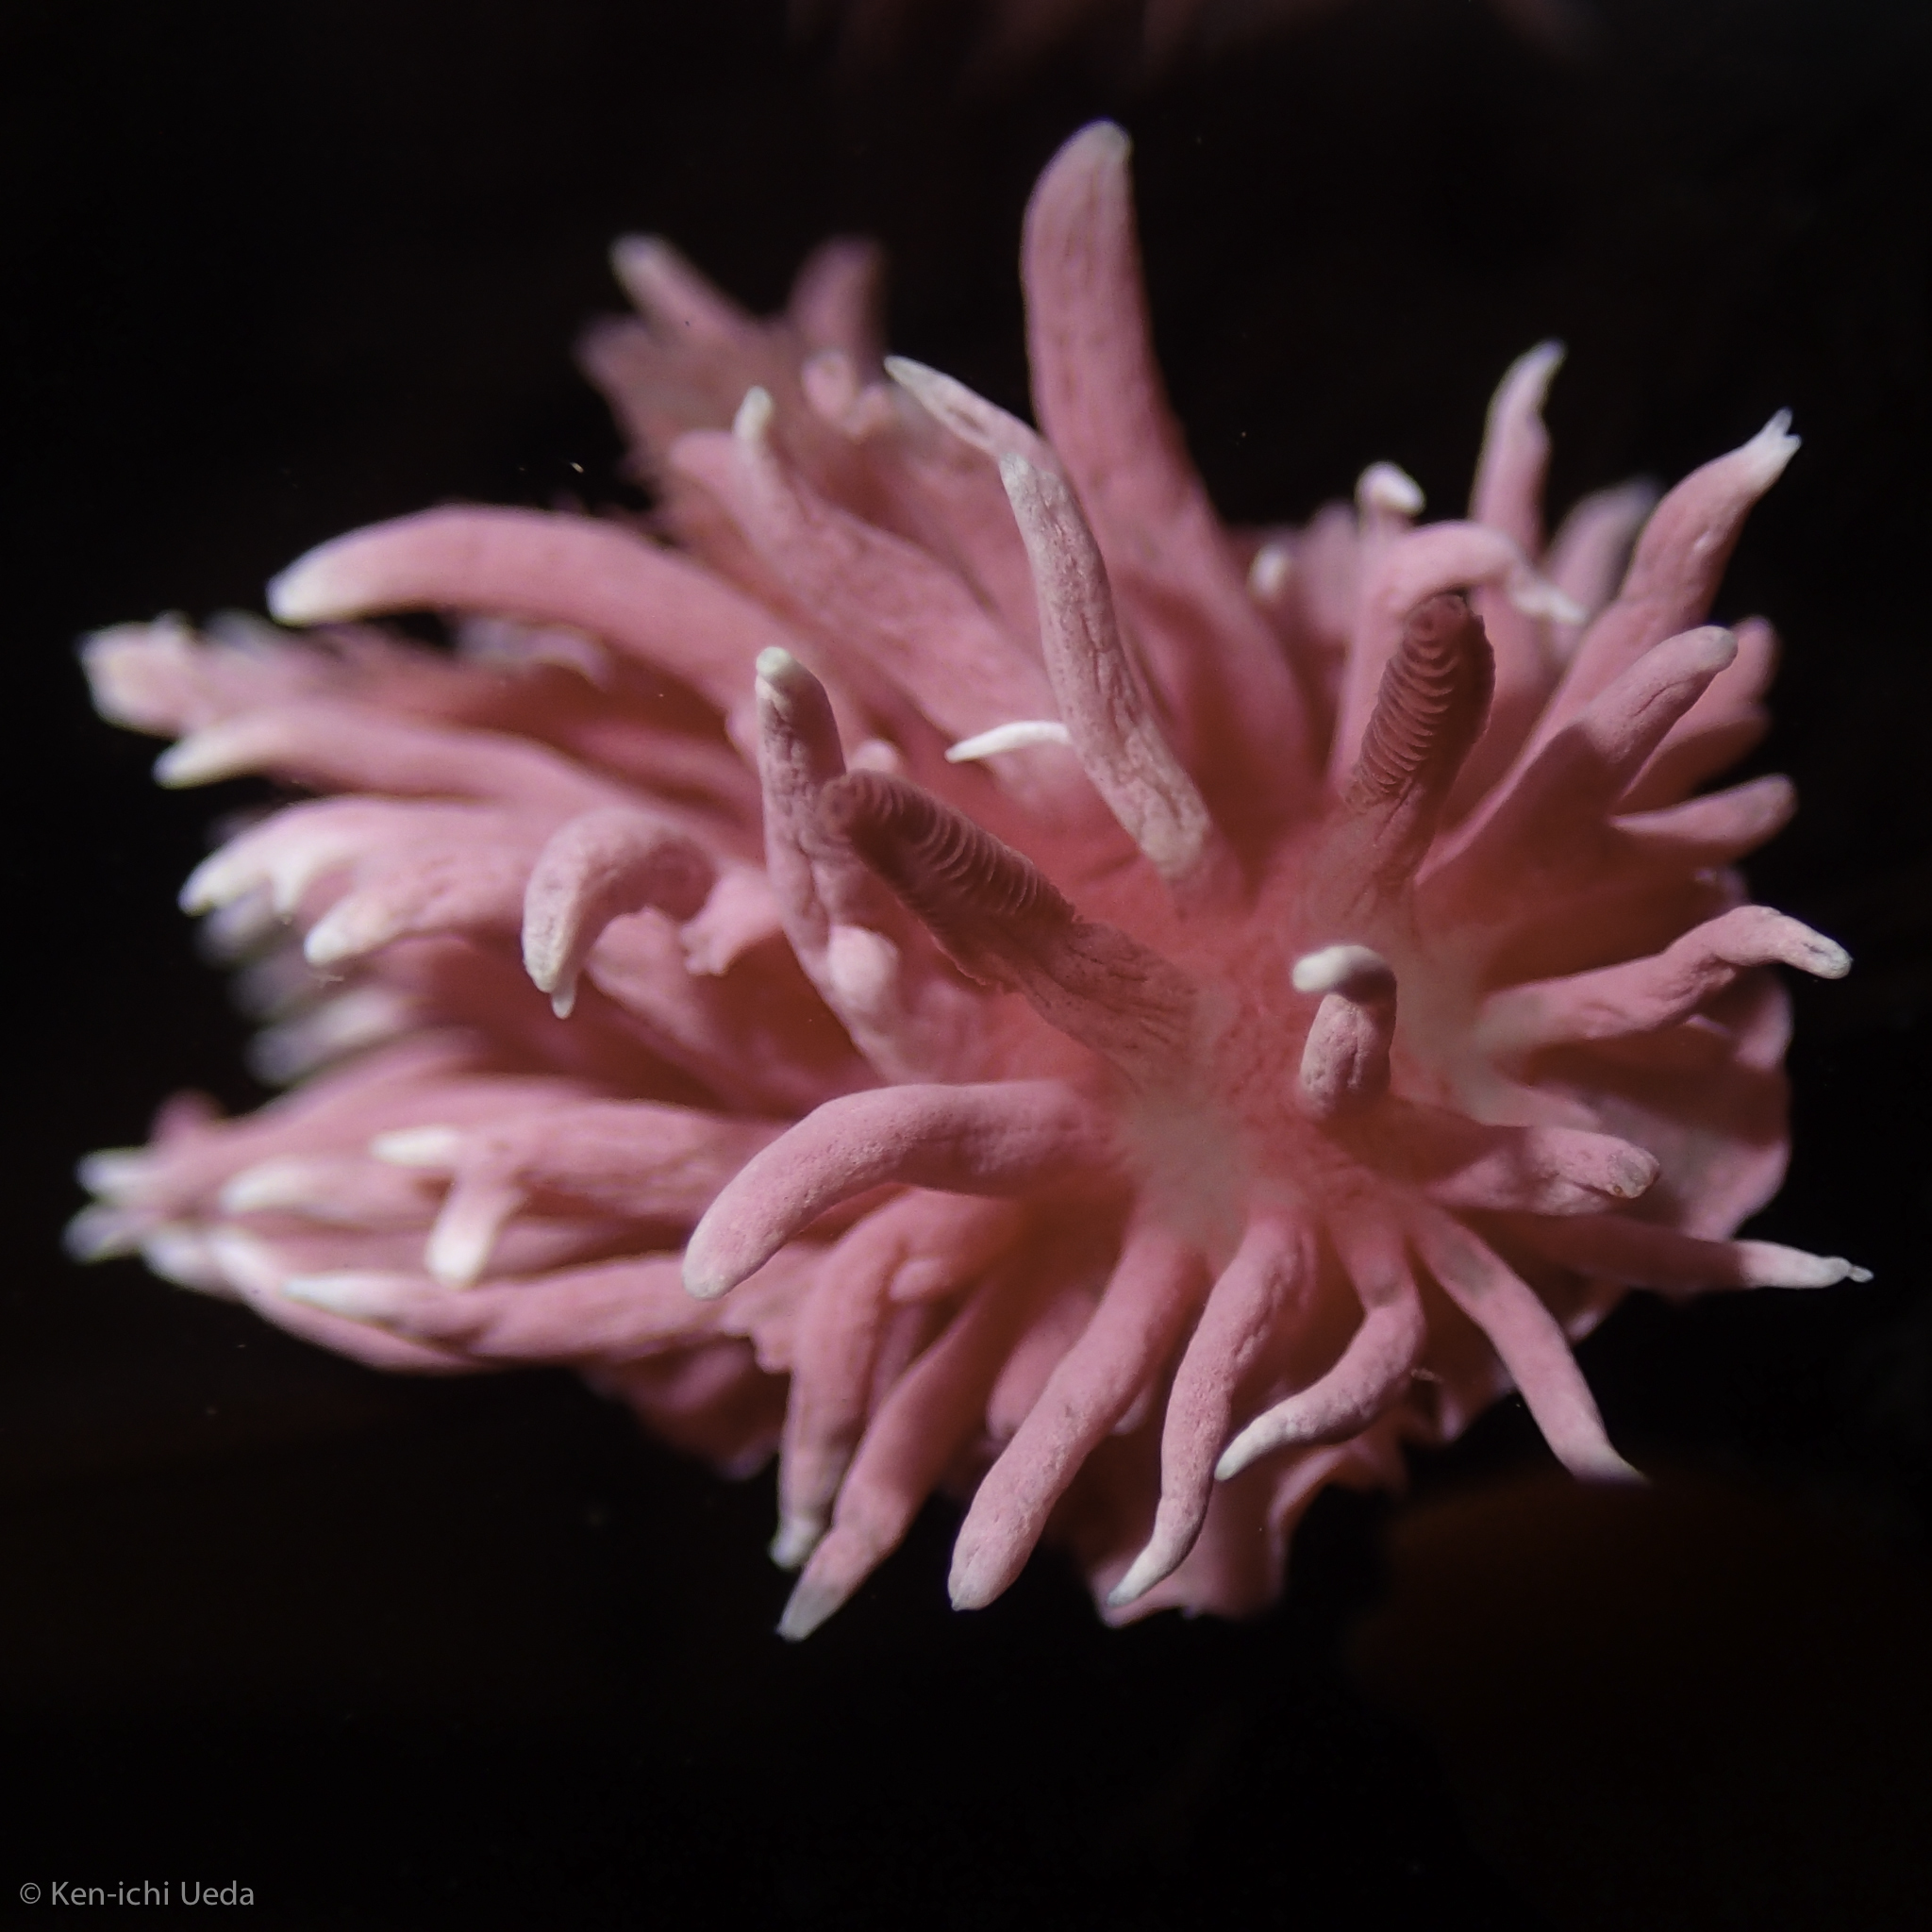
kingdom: Animalia
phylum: Mollusca
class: Gastropoda
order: Nudibranchia
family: Goniodorididae
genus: Okenia
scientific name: Okenia
